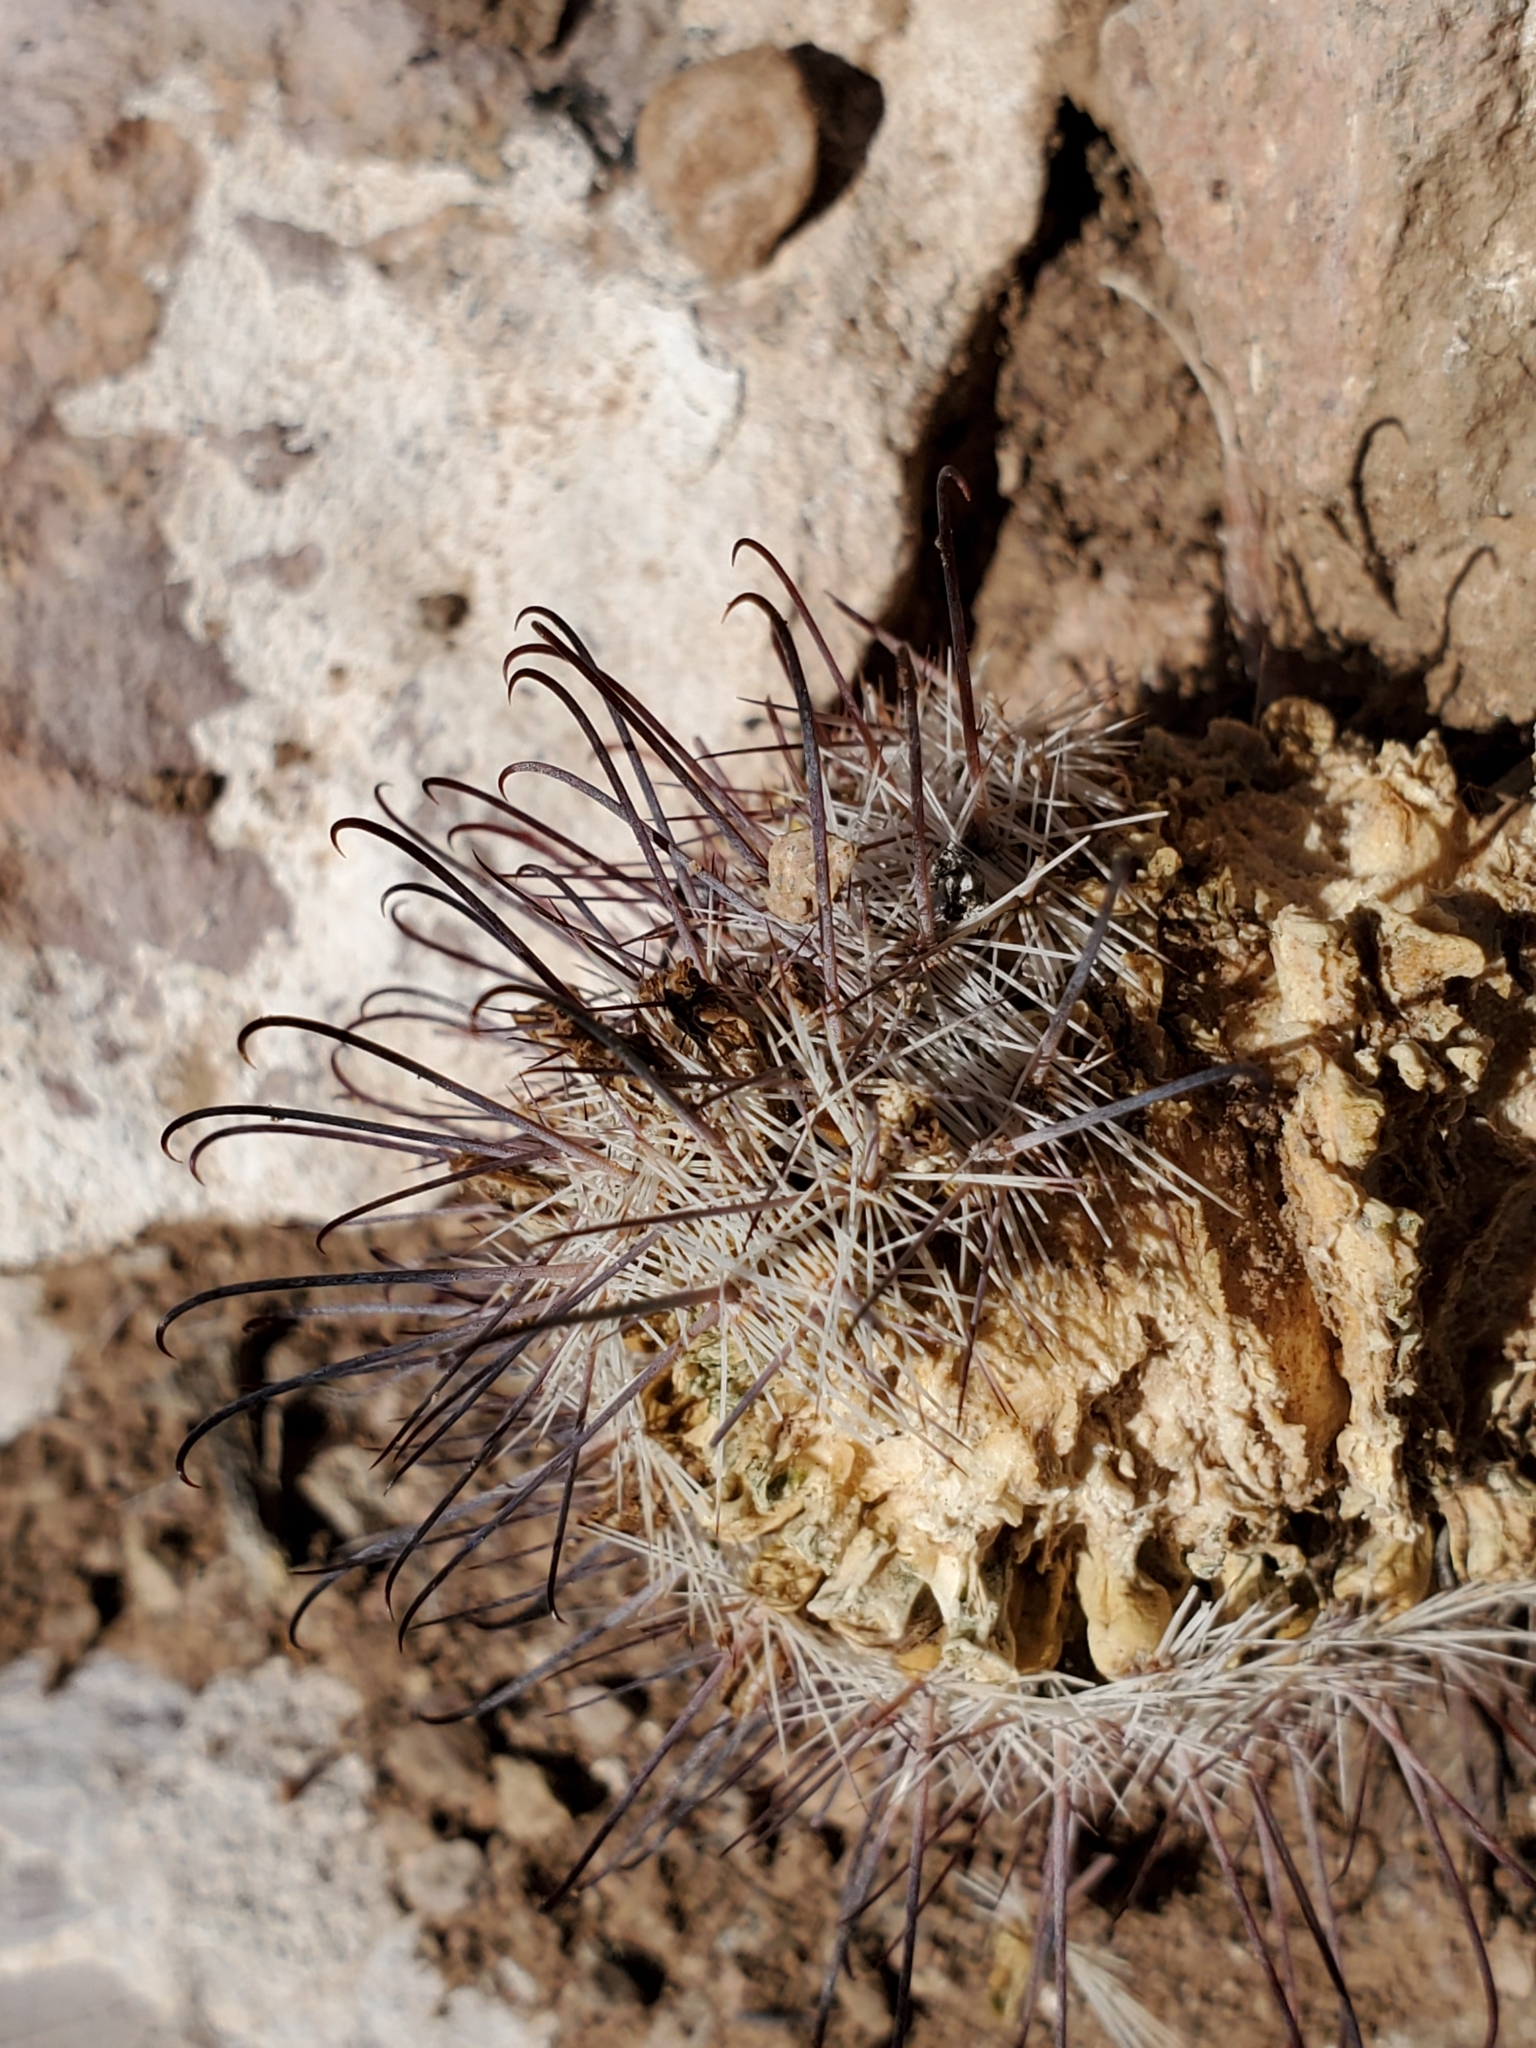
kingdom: Plantae
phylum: Tracheophyta
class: Magnoliopsida
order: Caryophyllales
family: Cactaceae
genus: Cochemiea
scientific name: Cochemiea grahamii
